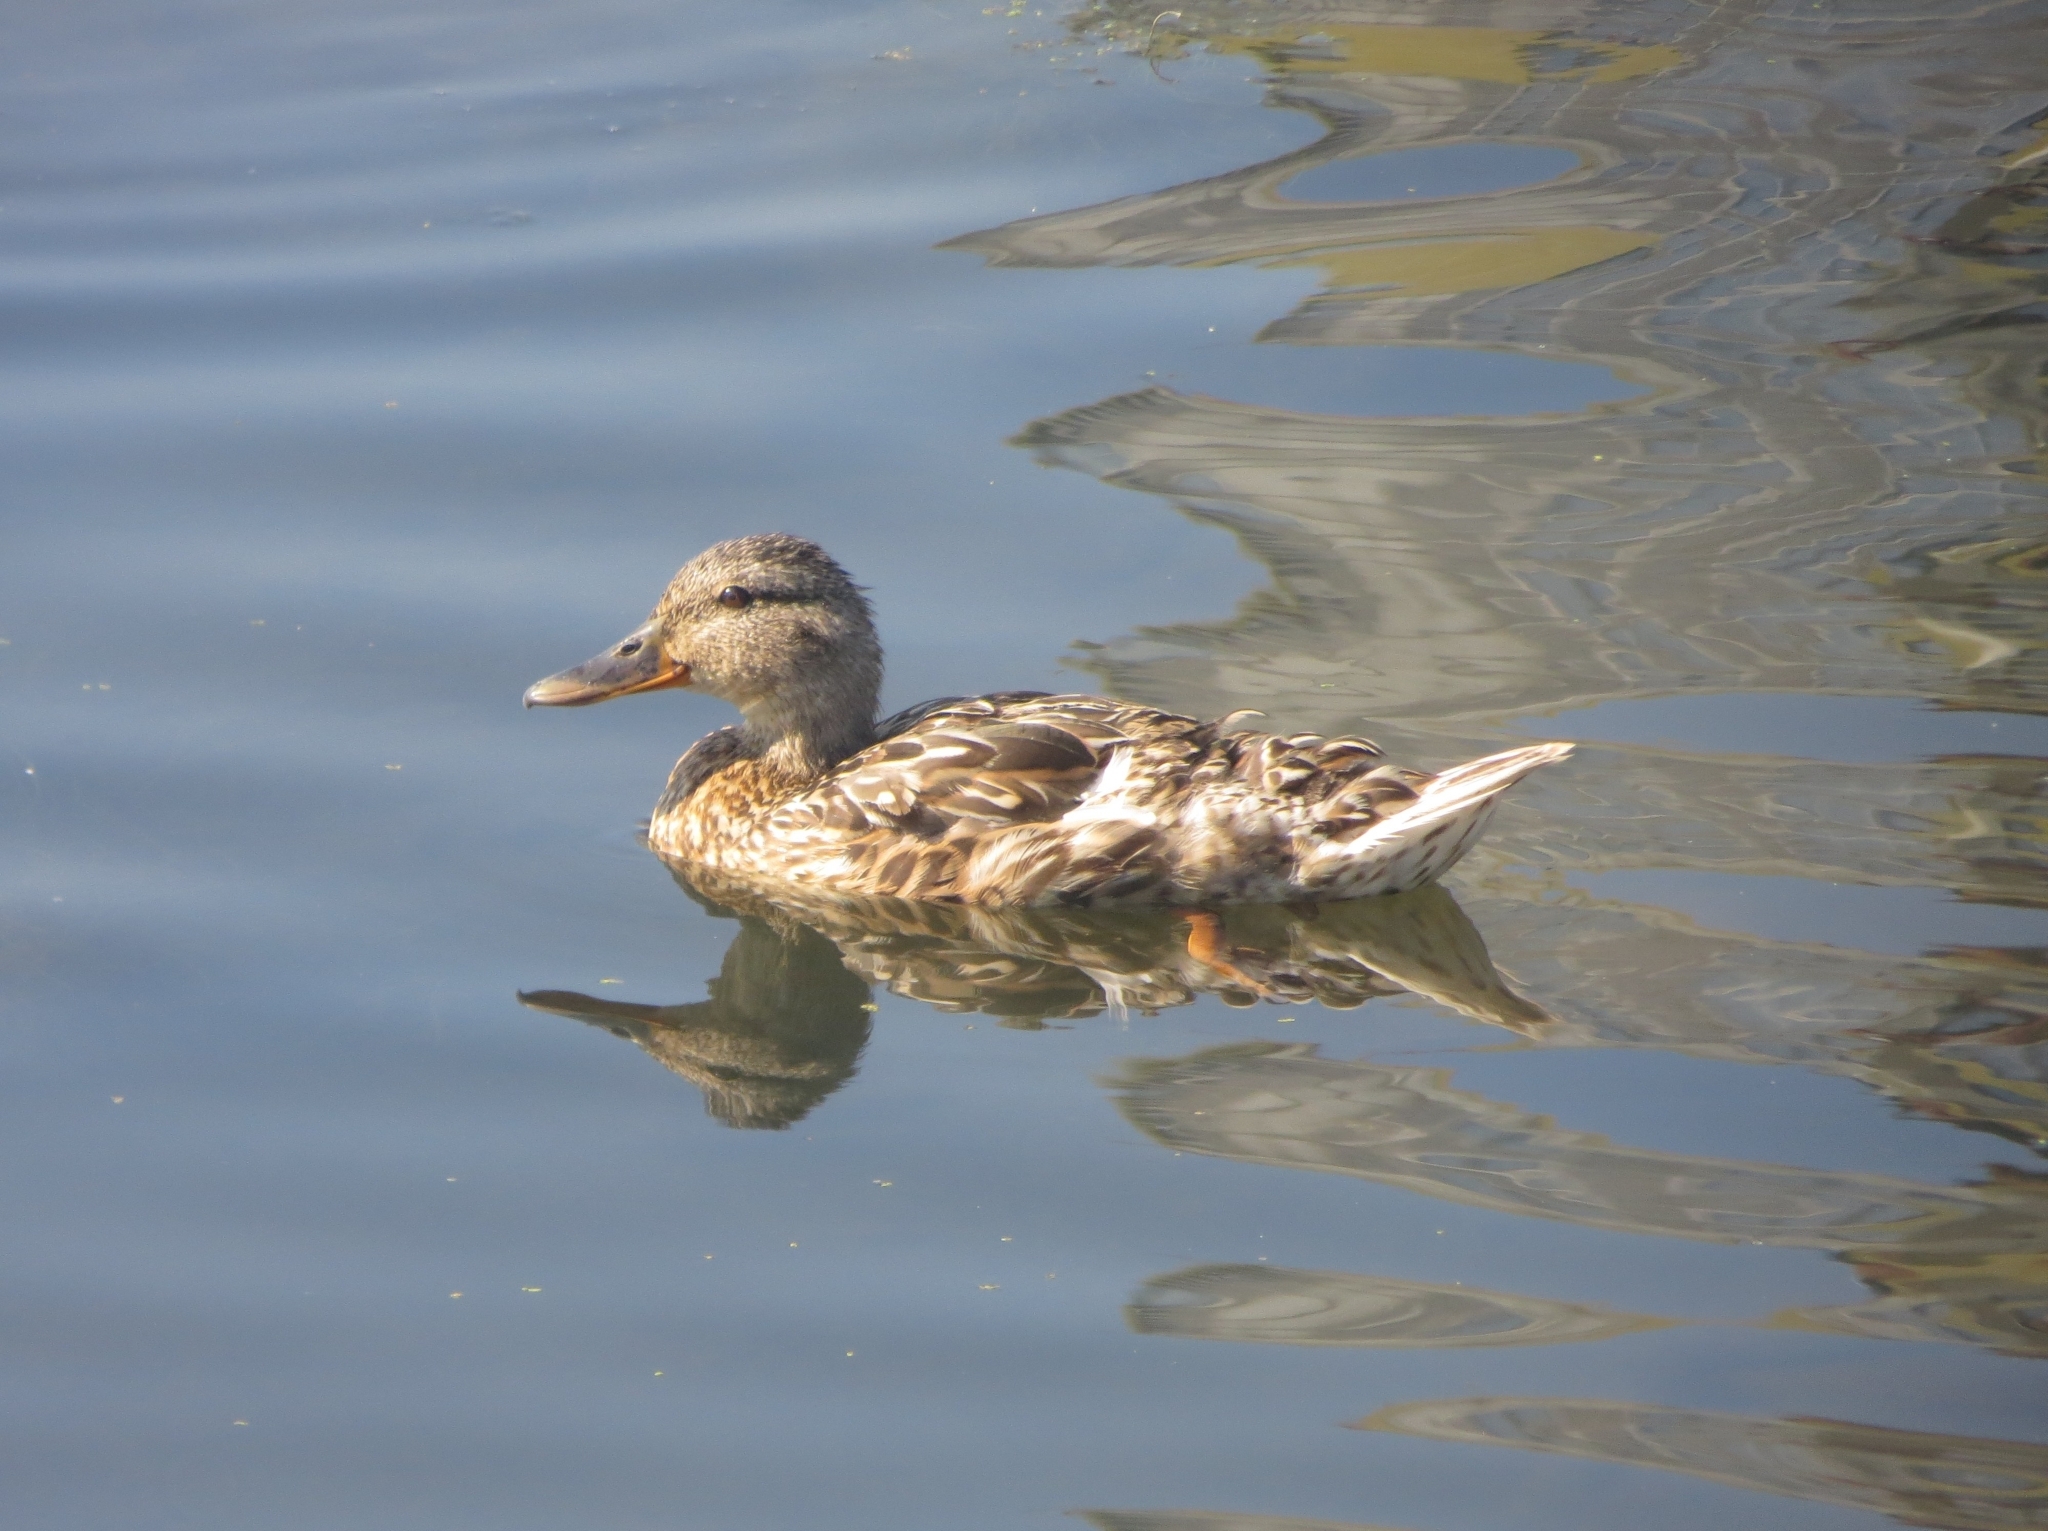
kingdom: Animalia
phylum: Chordata
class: Aves
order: Anseriformes
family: Anatidae
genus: Anas
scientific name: Anas platyrhynchos
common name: Mallard
